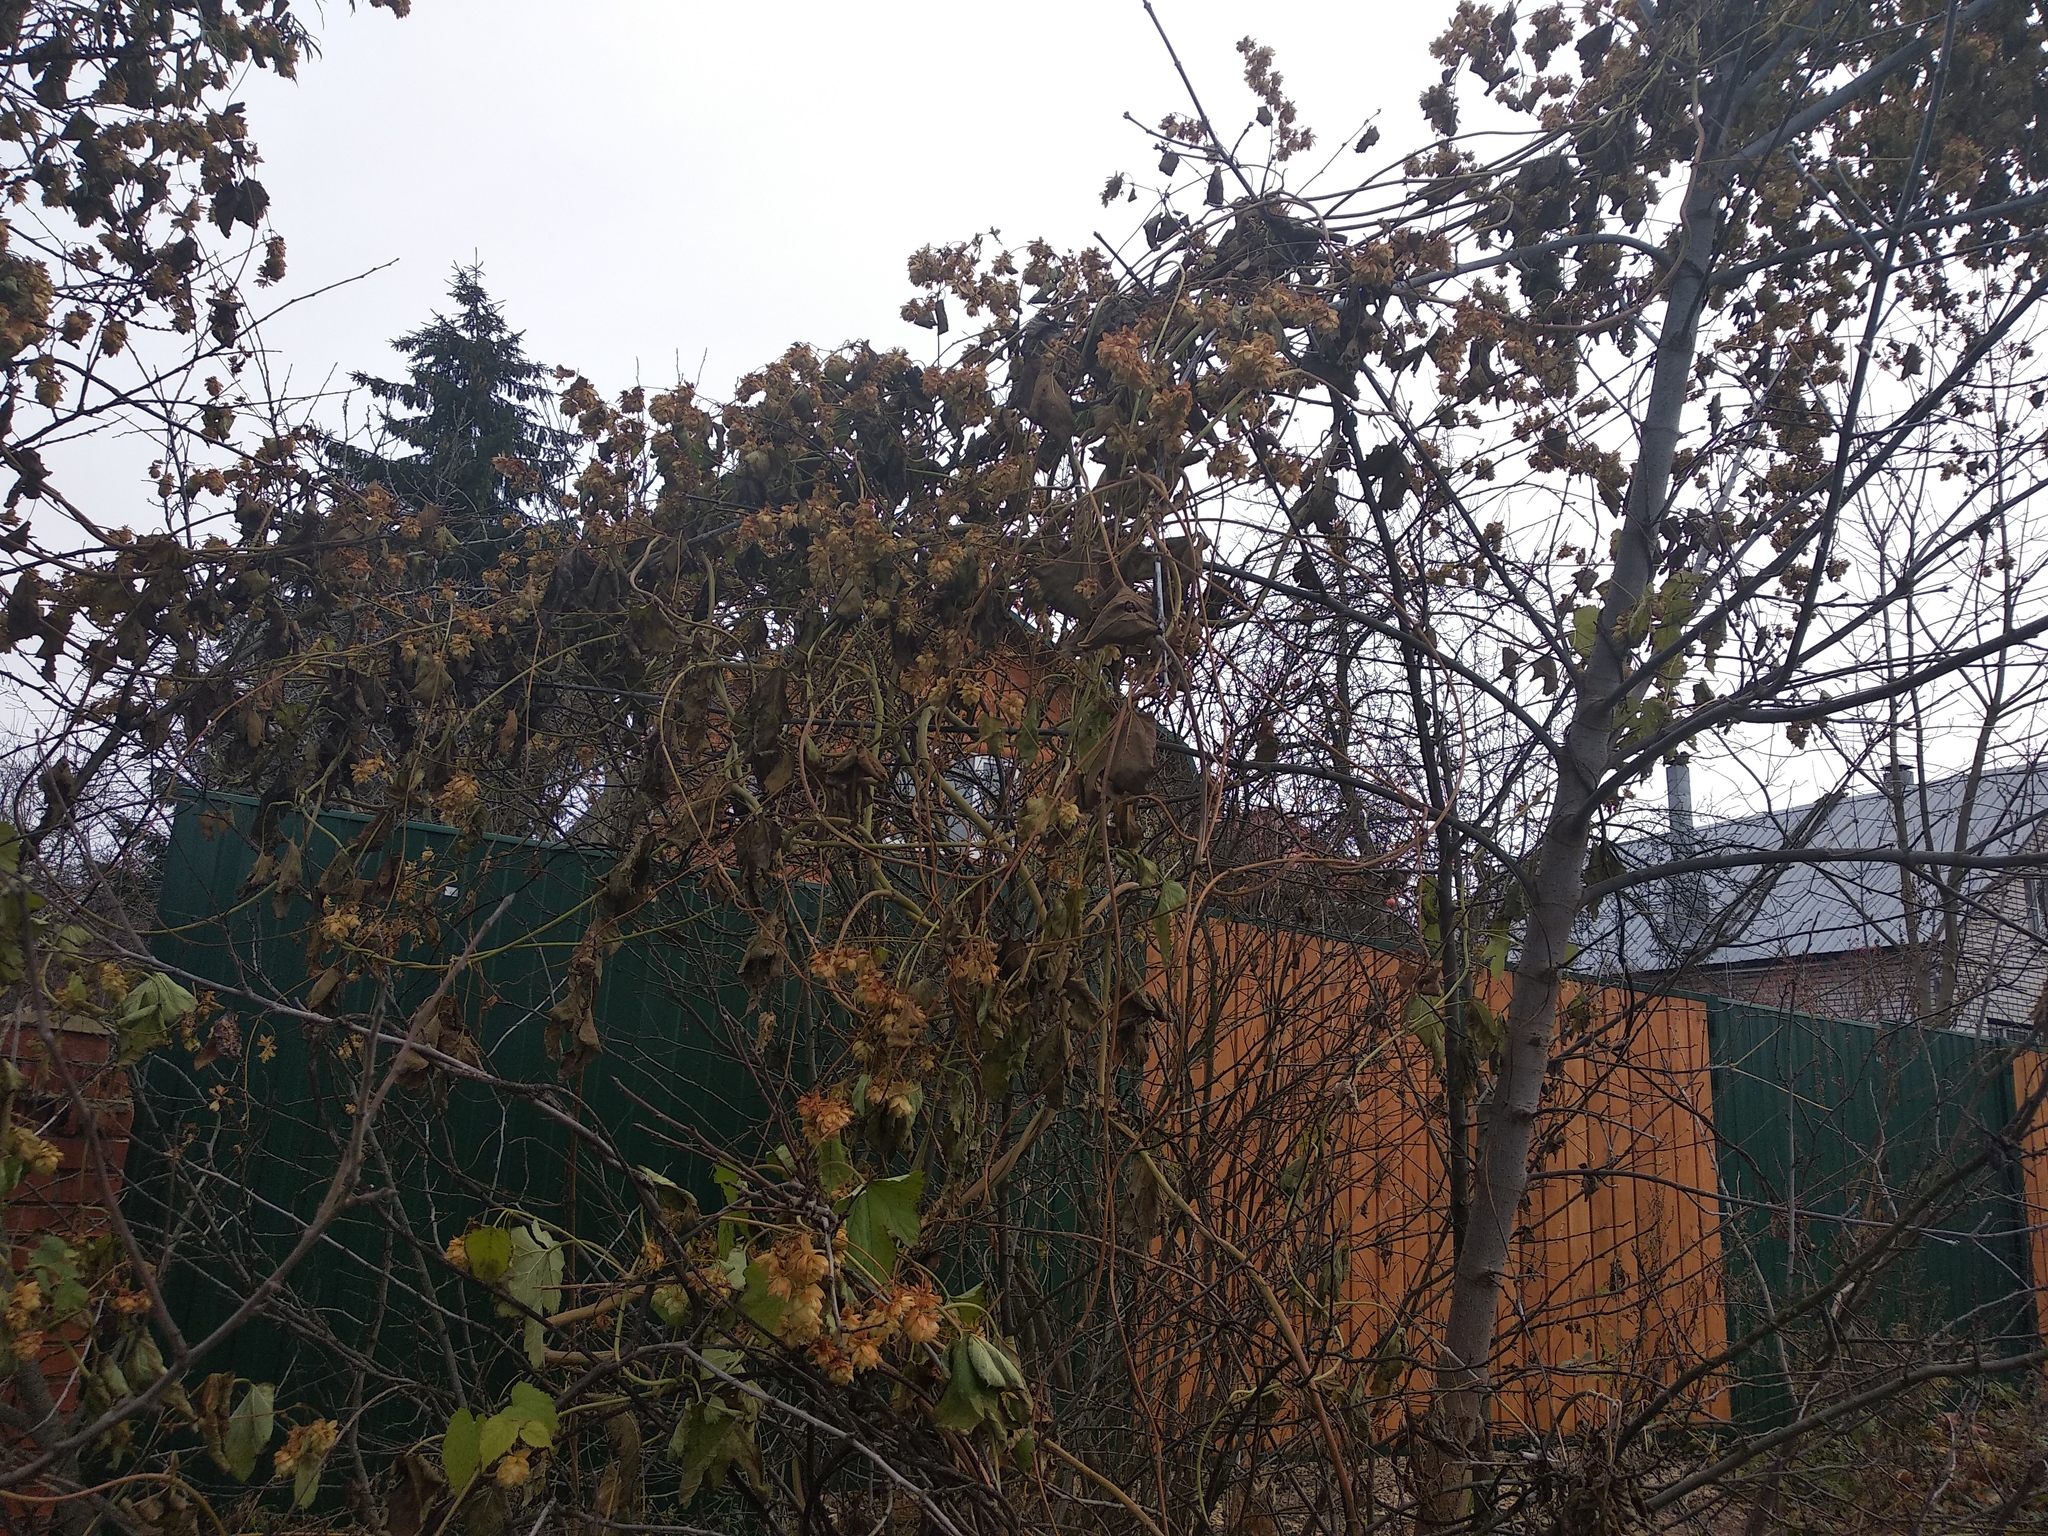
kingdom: Plantae
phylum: Tracheophyta
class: Magnoliopsida
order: Rosales
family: Cannabaceae
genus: Humulus
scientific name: Humulus lupulus
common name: Hop
